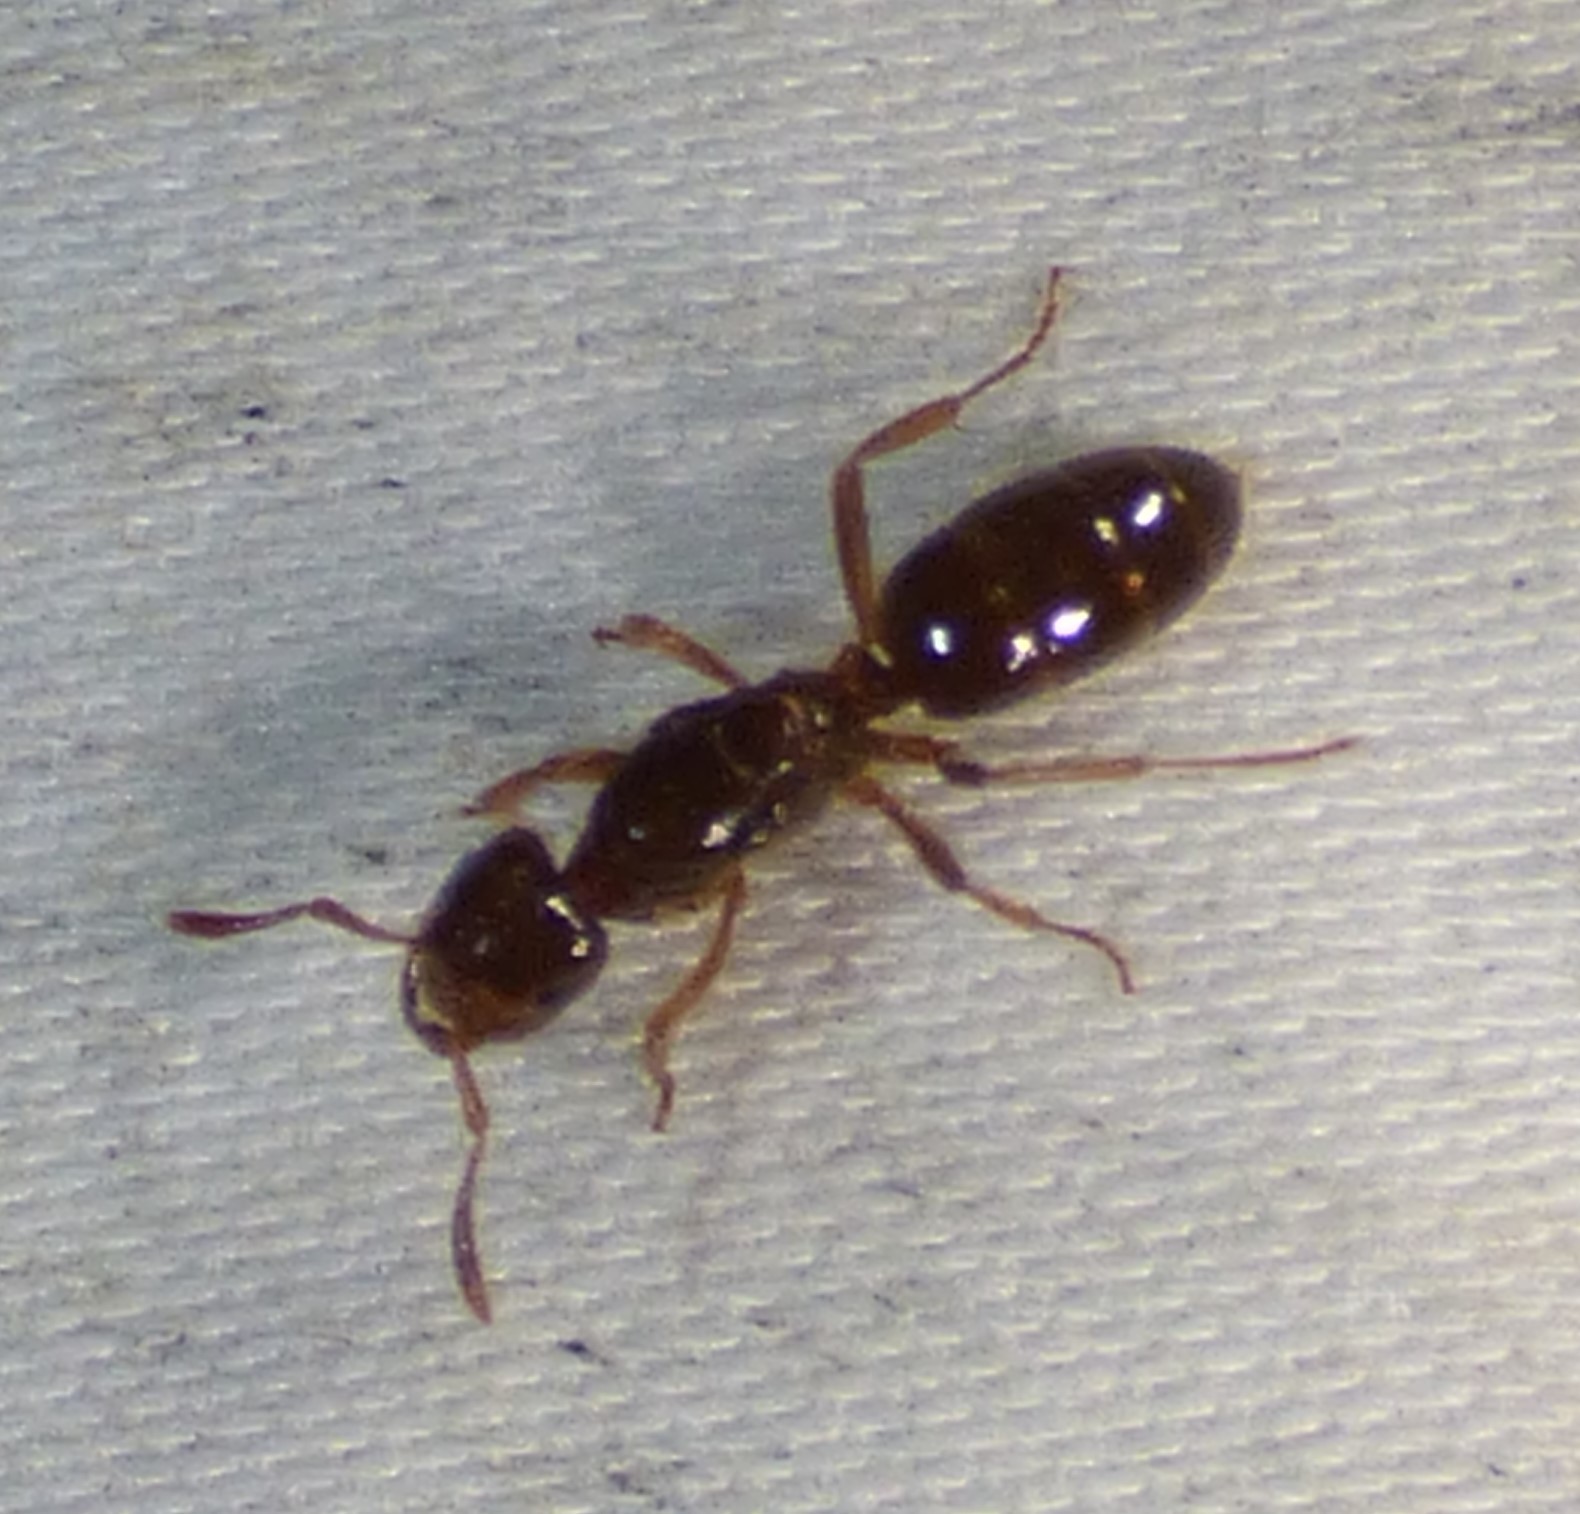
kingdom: Animalia
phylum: Arthropoda
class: Insecta
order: Hymenoptera
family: Formicidae
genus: Lasius
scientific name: Lasius claviger
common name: Common citronella ant
